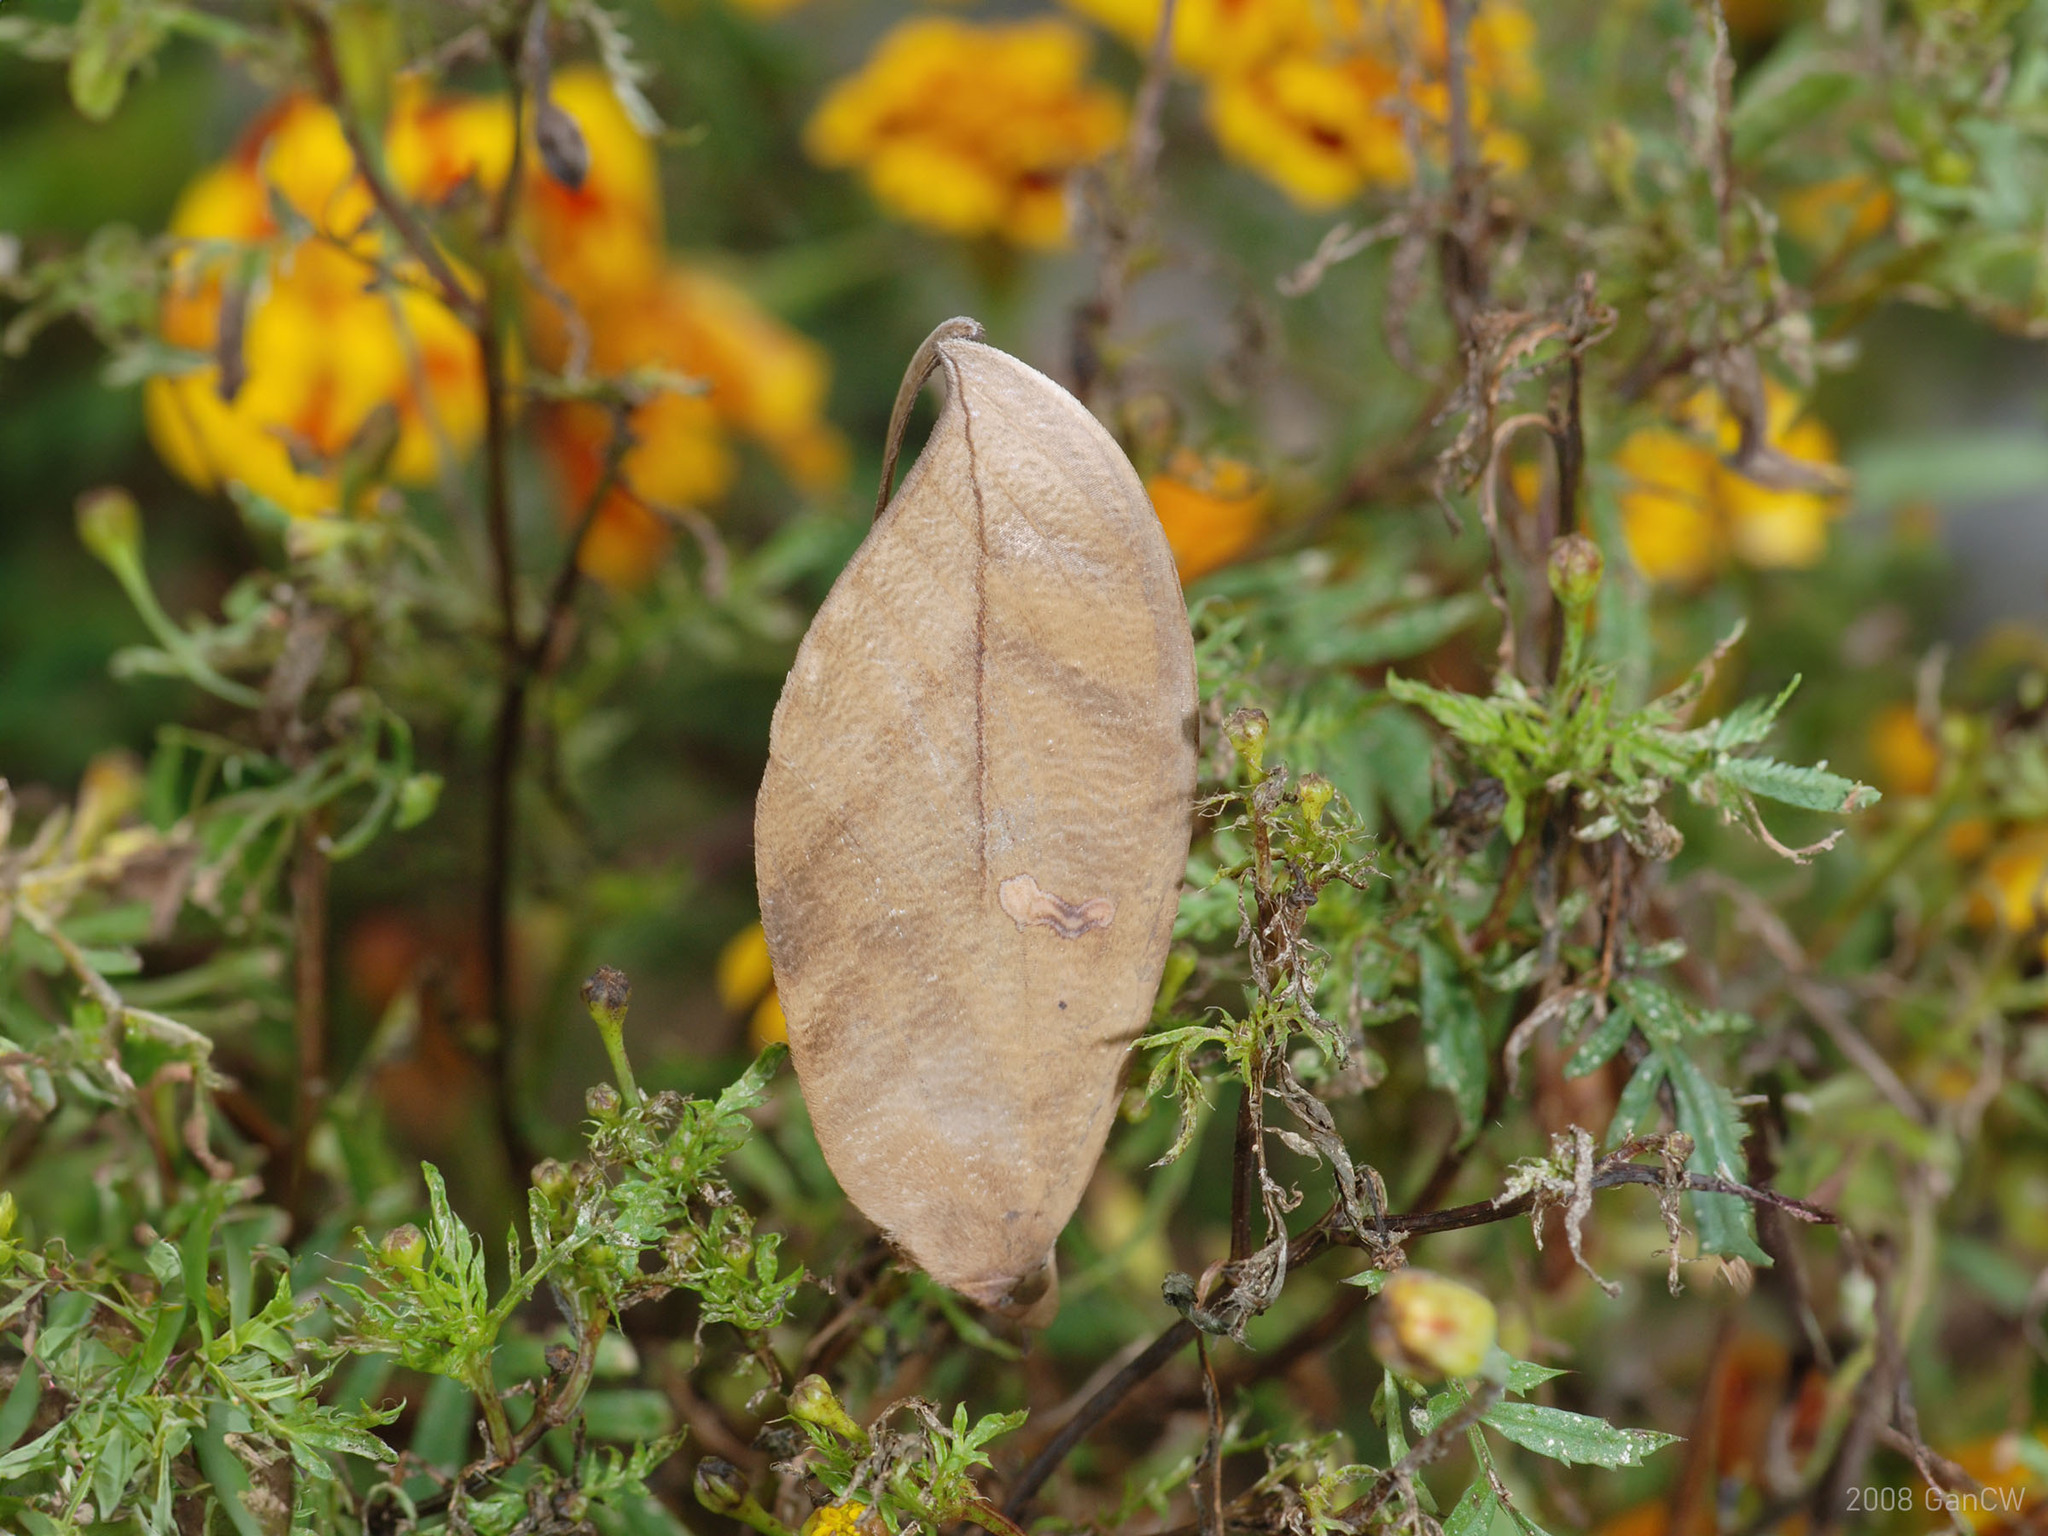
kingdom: Animalia
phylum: Arthropoda
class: Insecta
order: Lepidoptera
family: Erebidae
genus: Phyllodes
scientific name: Phyllodes eyndhovii
